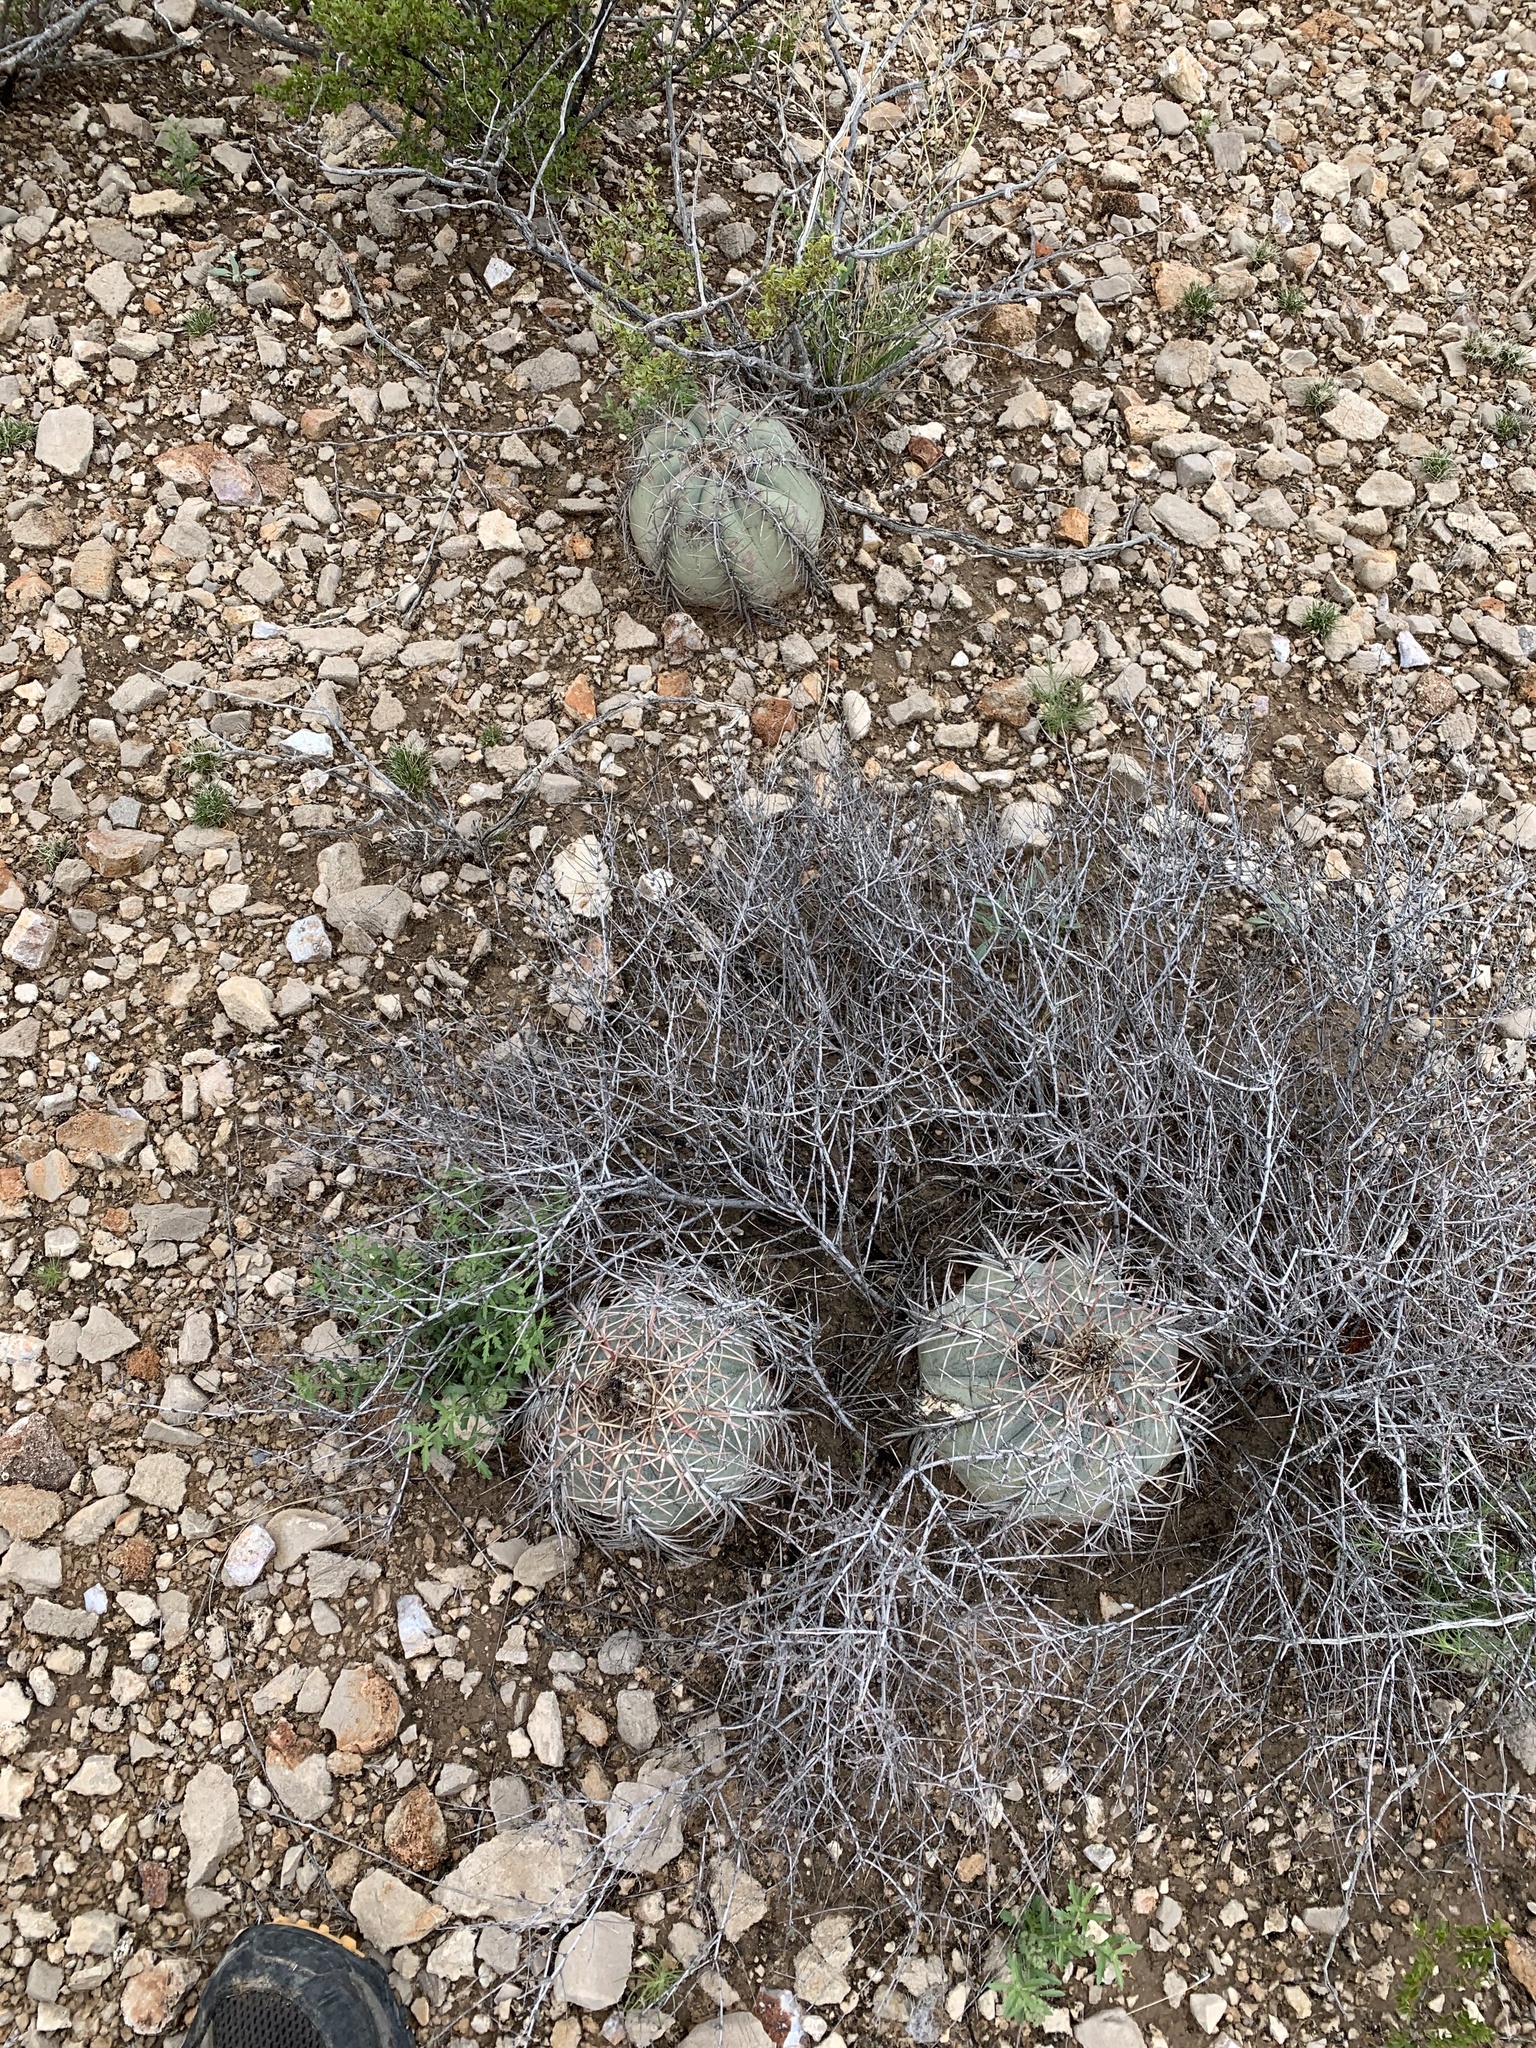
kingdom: Plantae
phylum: Tracheophyta
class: Magnoliopsida
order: Caryophyllales
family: Cactaceae
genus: Echinocactus
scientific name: Echinocactus horizonthalonius
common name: Devilshead
